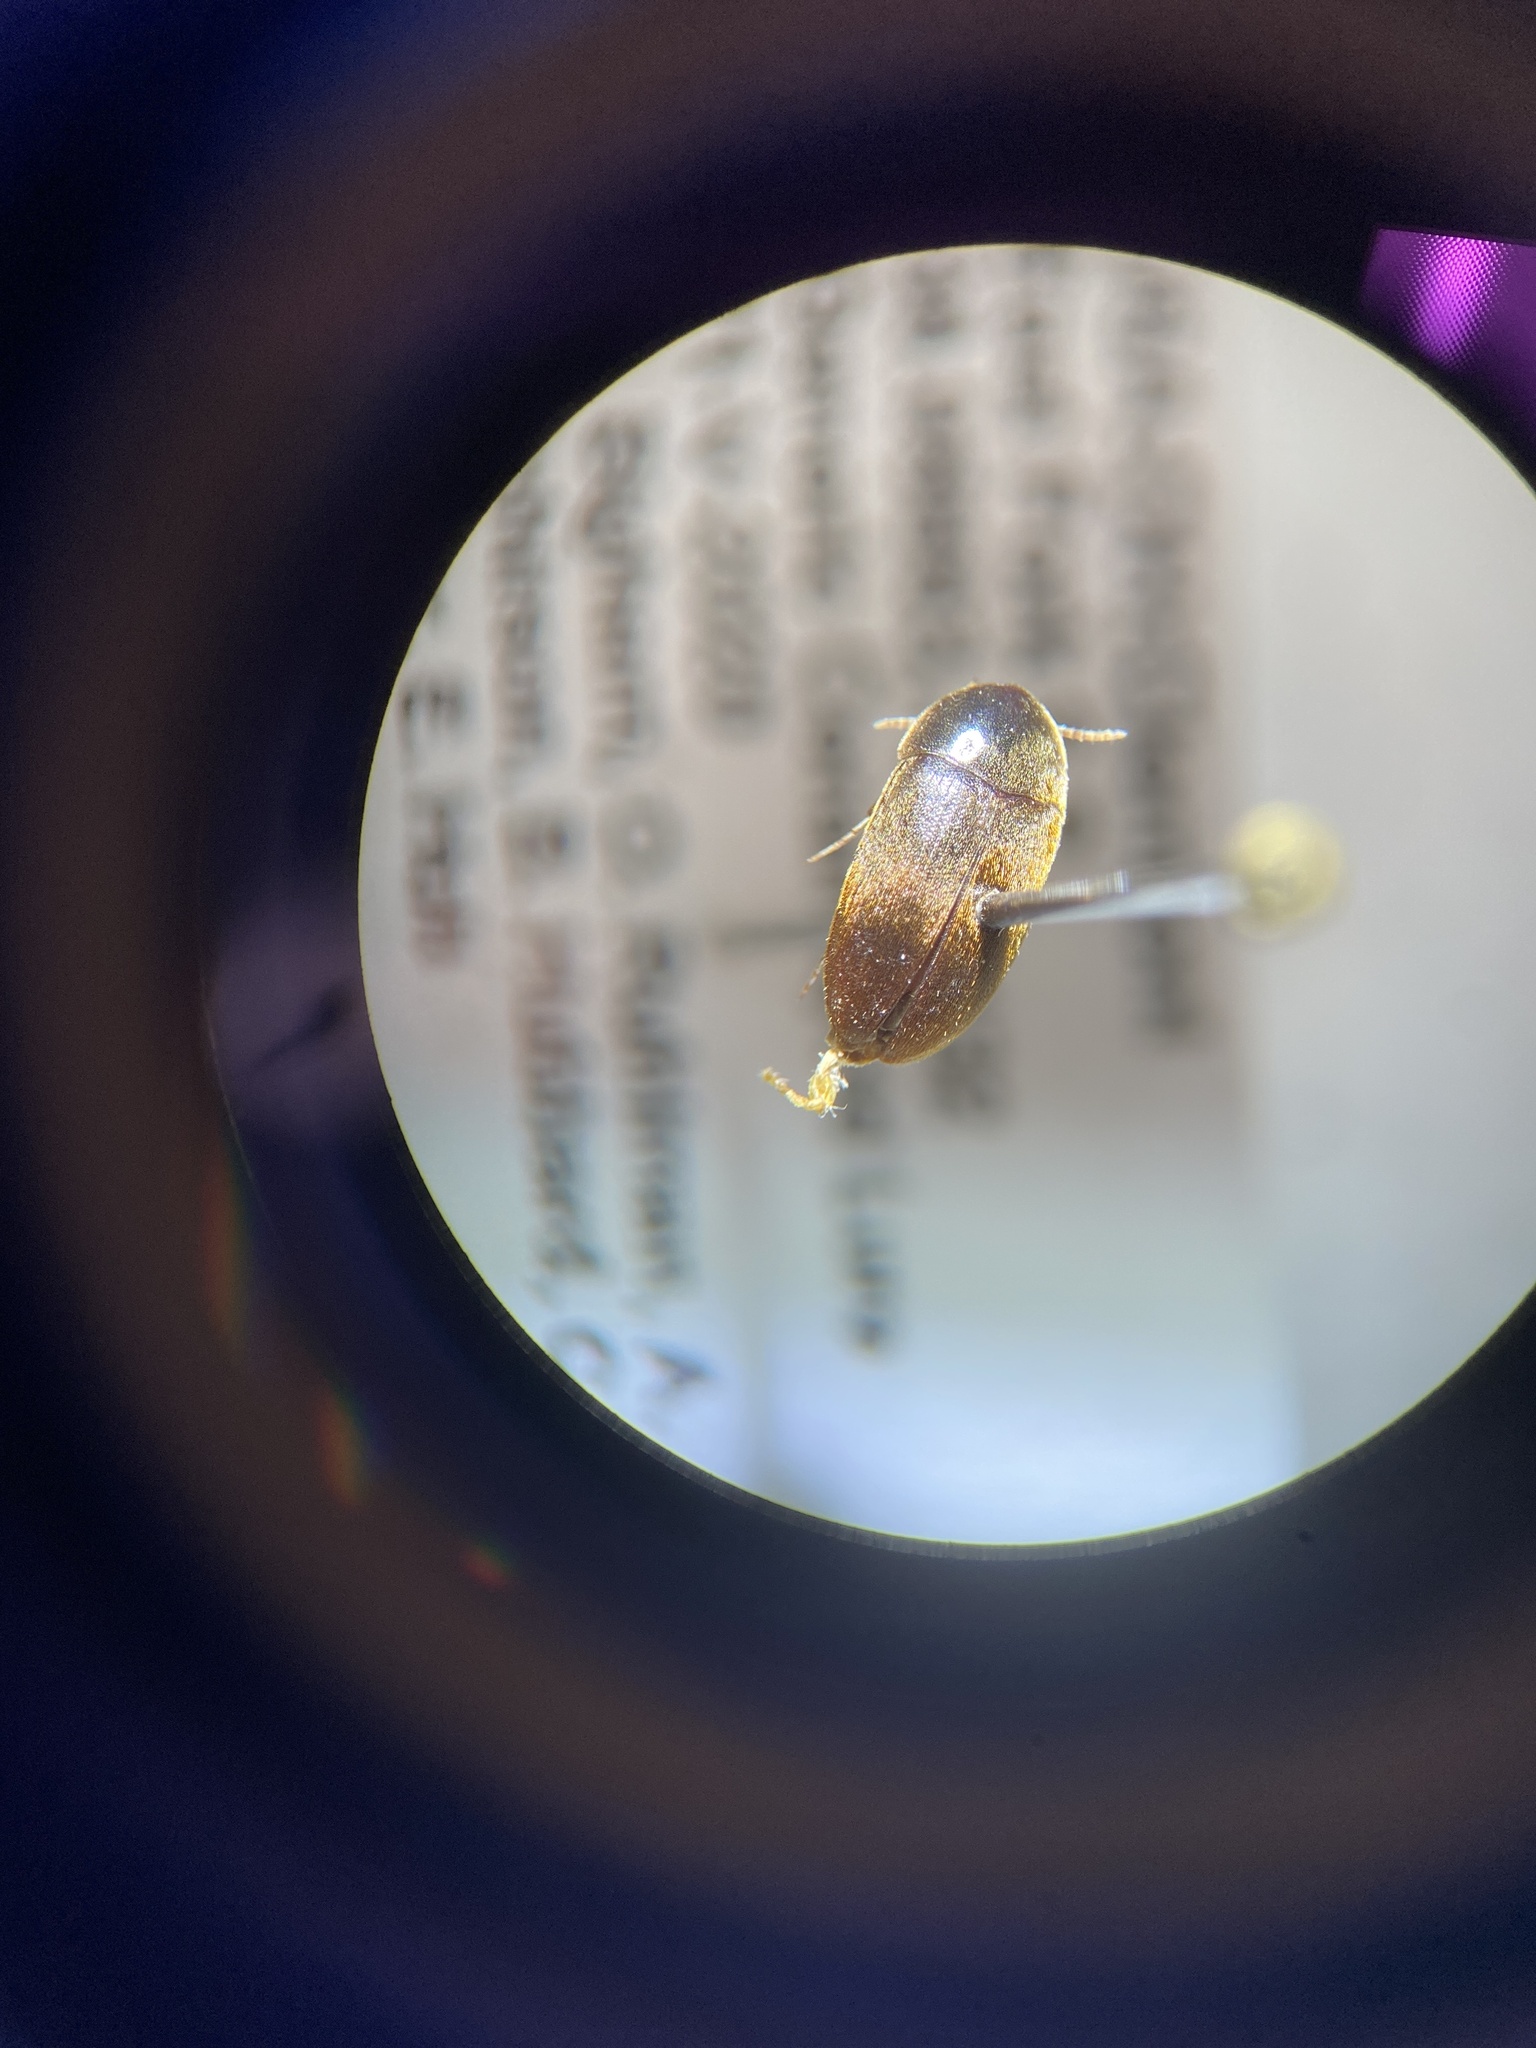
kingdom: Animalia
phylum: Arthropoda
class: Insecta
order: Coleoptera
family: Tetratomidae
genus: Eustrophus
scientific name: Eustrophus tomentosus
